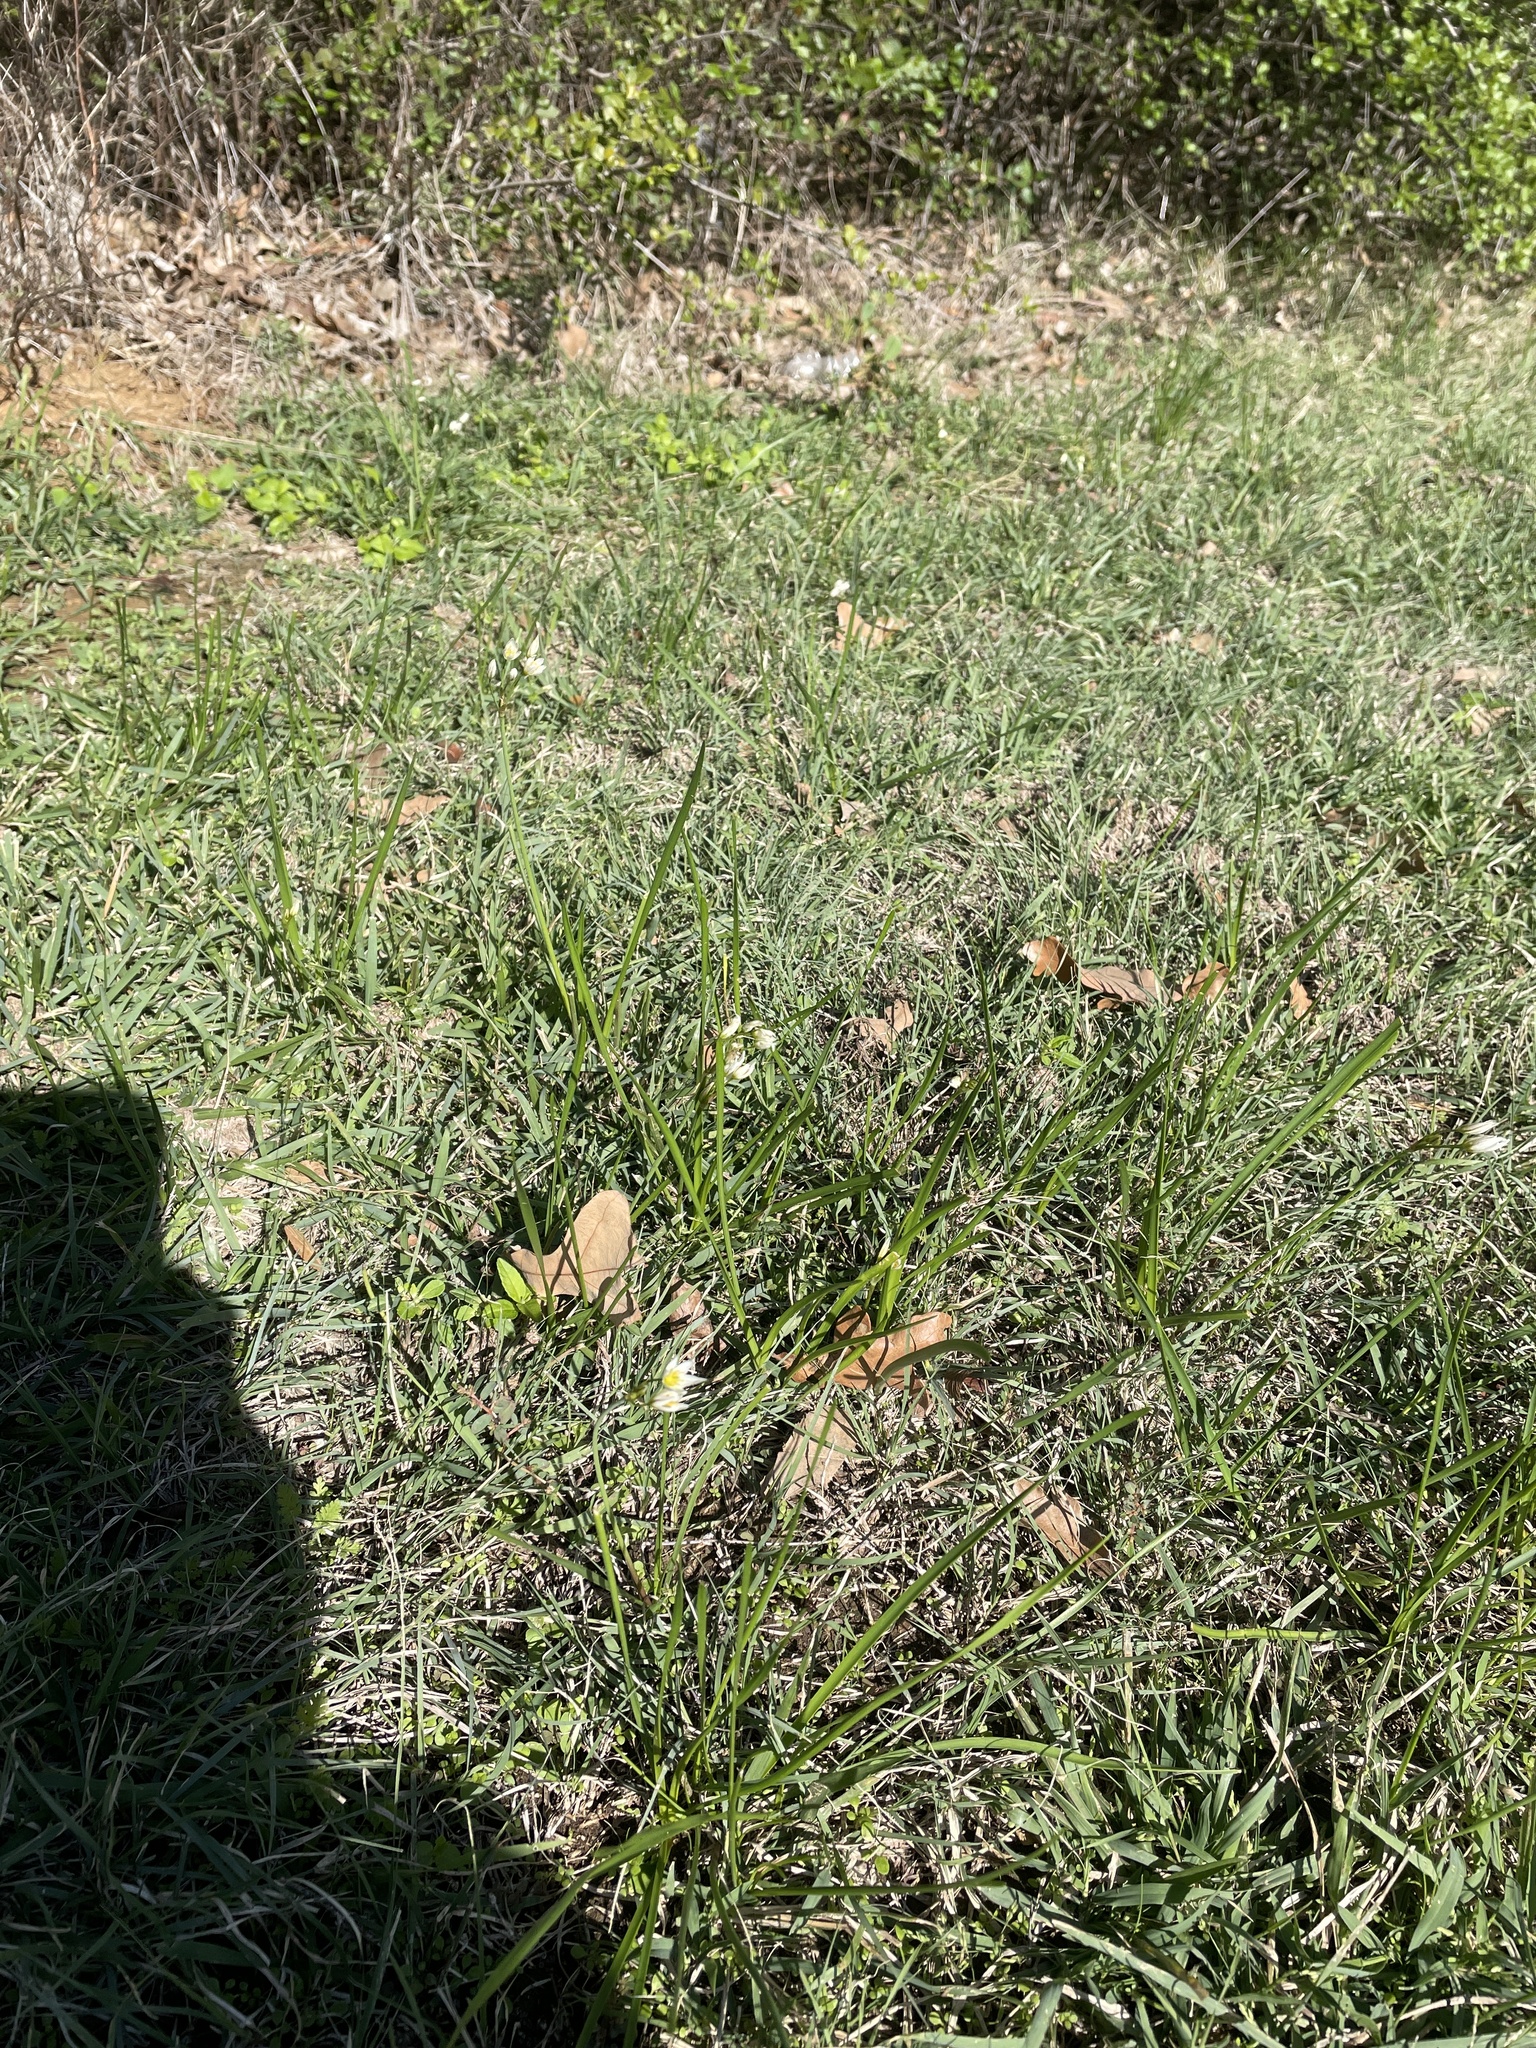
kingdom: Plantae
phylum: Tracheophyta
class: Liliopsida
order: Asparagales
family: Amaryllidaceae
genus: Nothoscordum
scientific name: Nothoscordum bivalve
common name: Crow-poison
